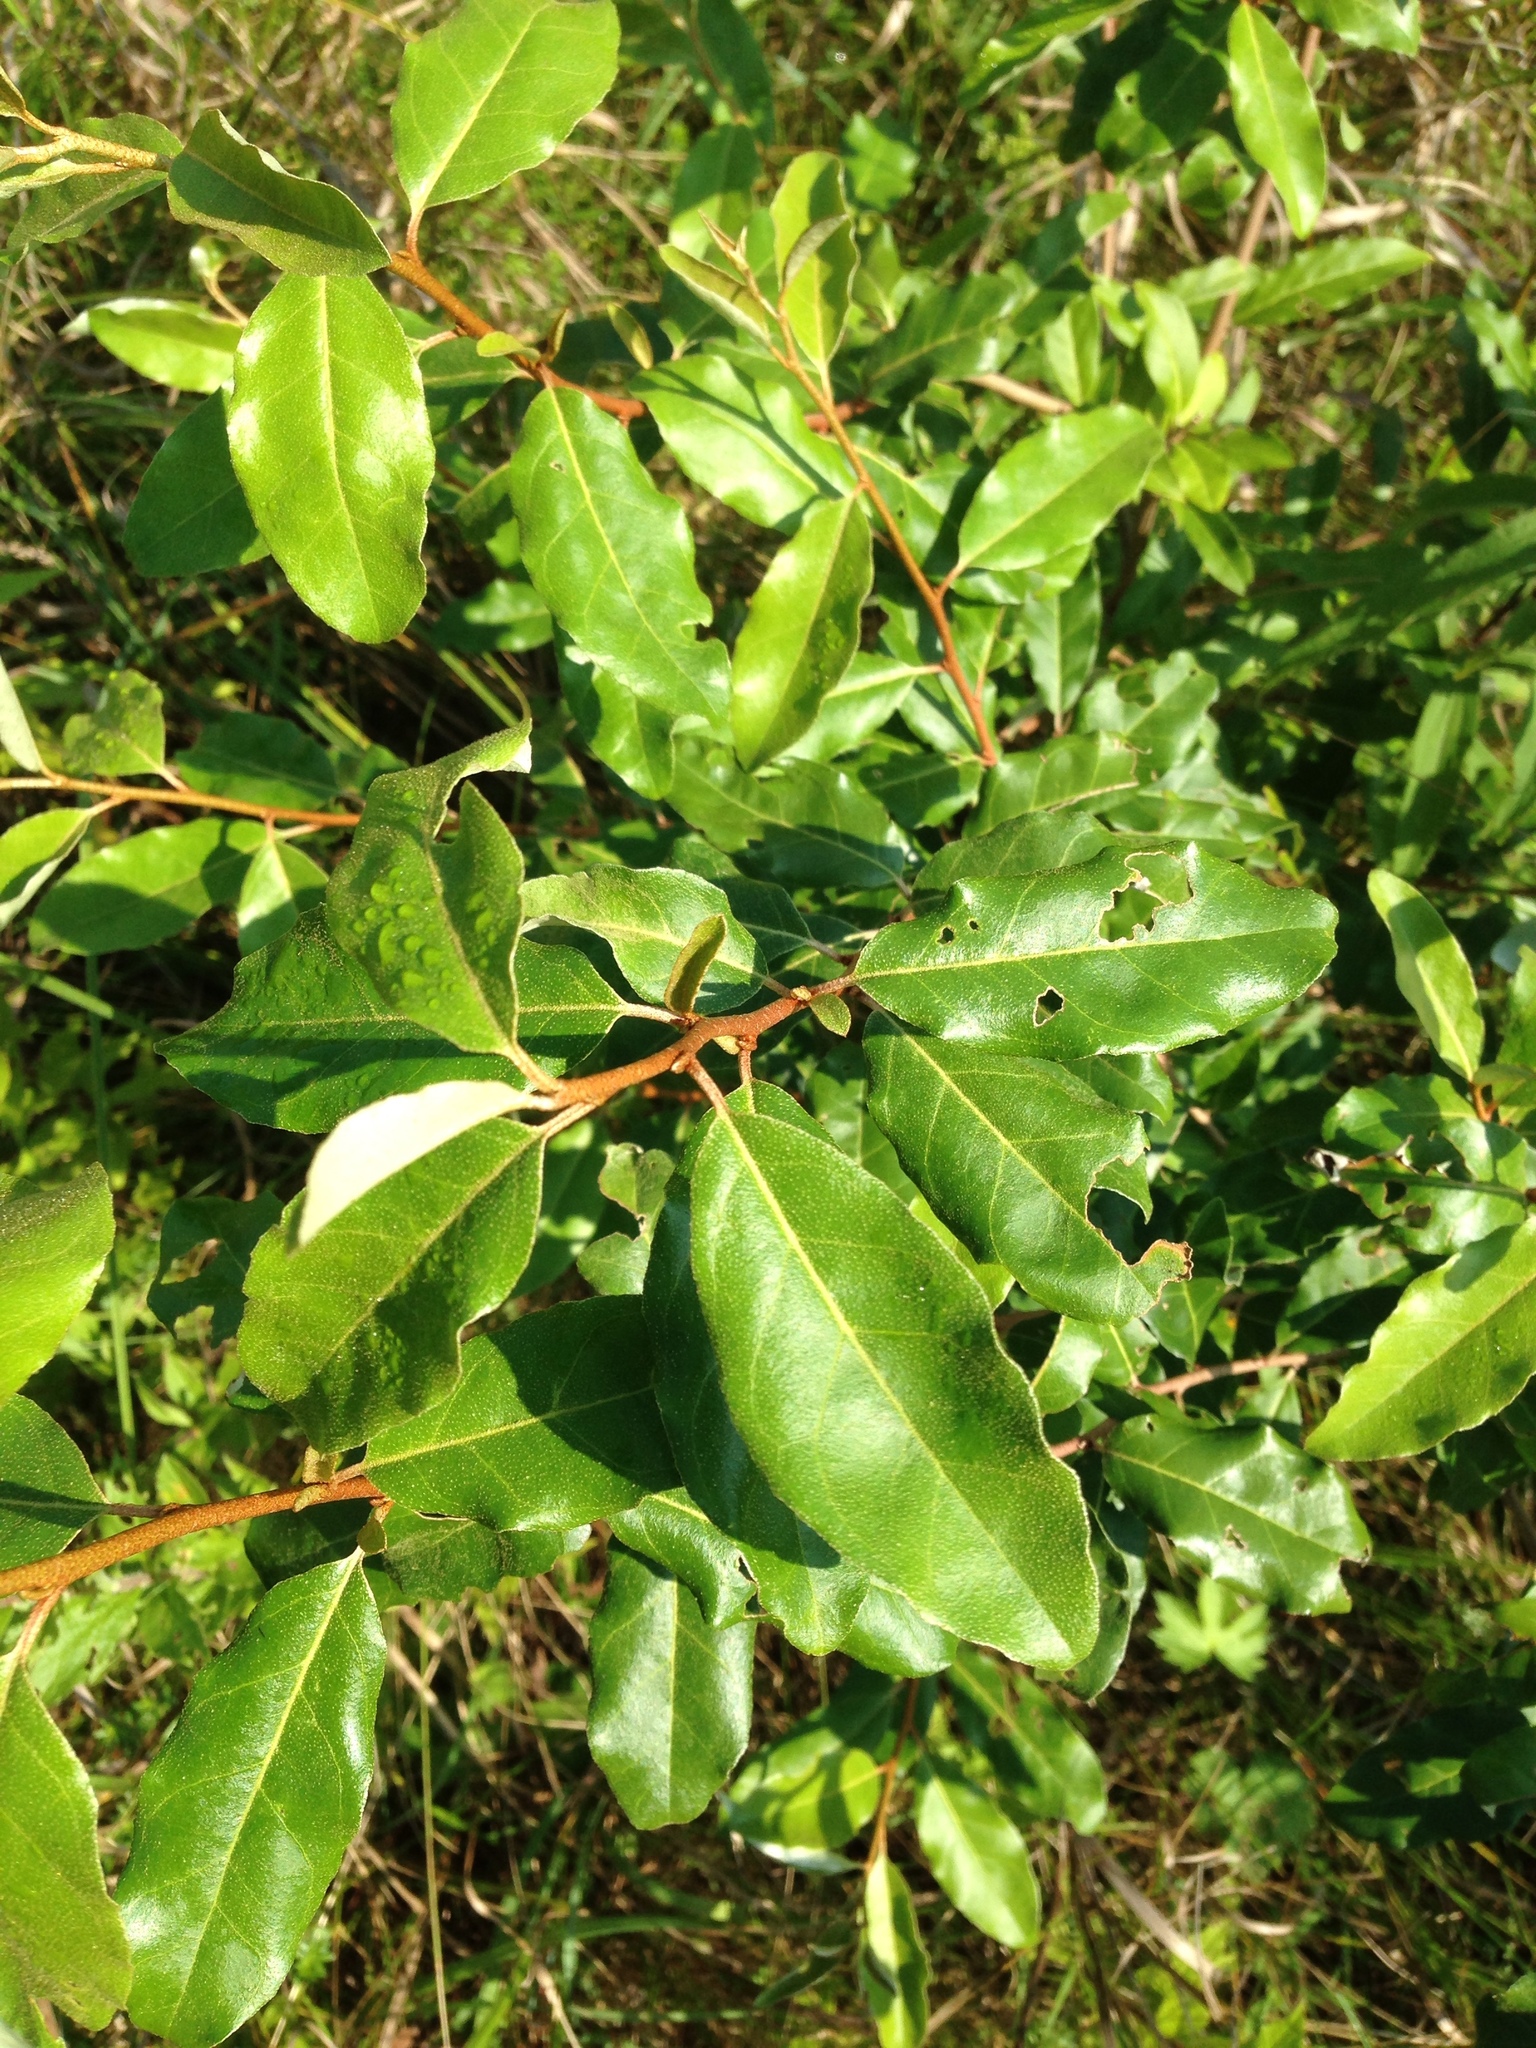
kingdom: Plantae
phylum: Tracheophyta
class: Magnoliopsida
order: Rosales
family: Elaeagnaceae
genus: Elaeagnus
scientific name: Elaeagnus umbellata
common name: Autumn olive
